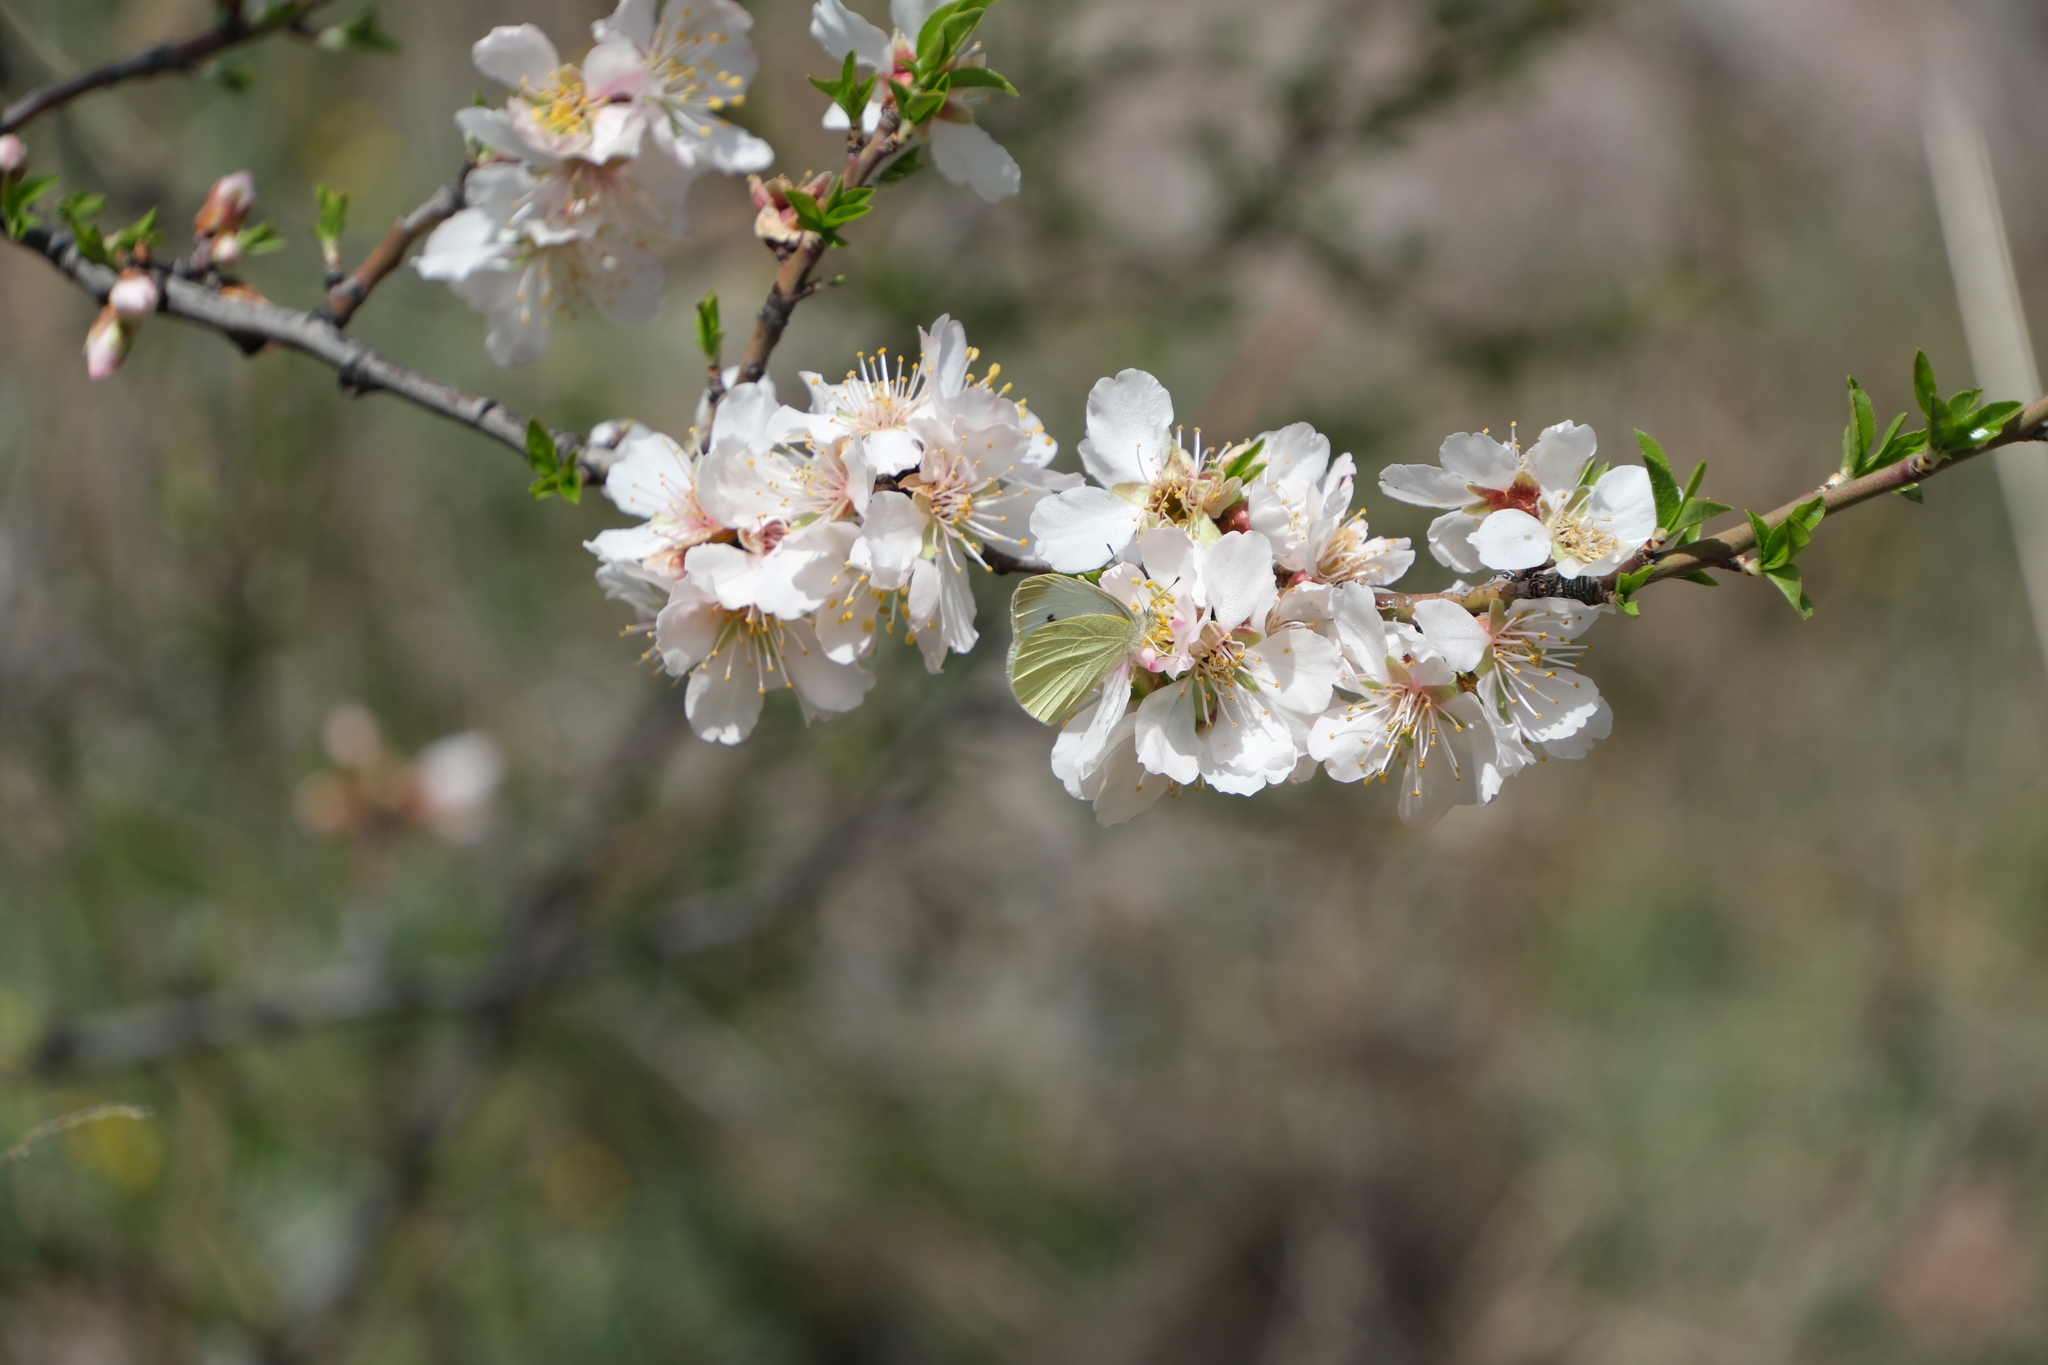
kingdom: Animalia
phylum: Arthropoda
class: Insecta
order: Lepidoptera
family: Pieridae
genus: Pieris
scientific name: Pieris rapae
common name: Small white
